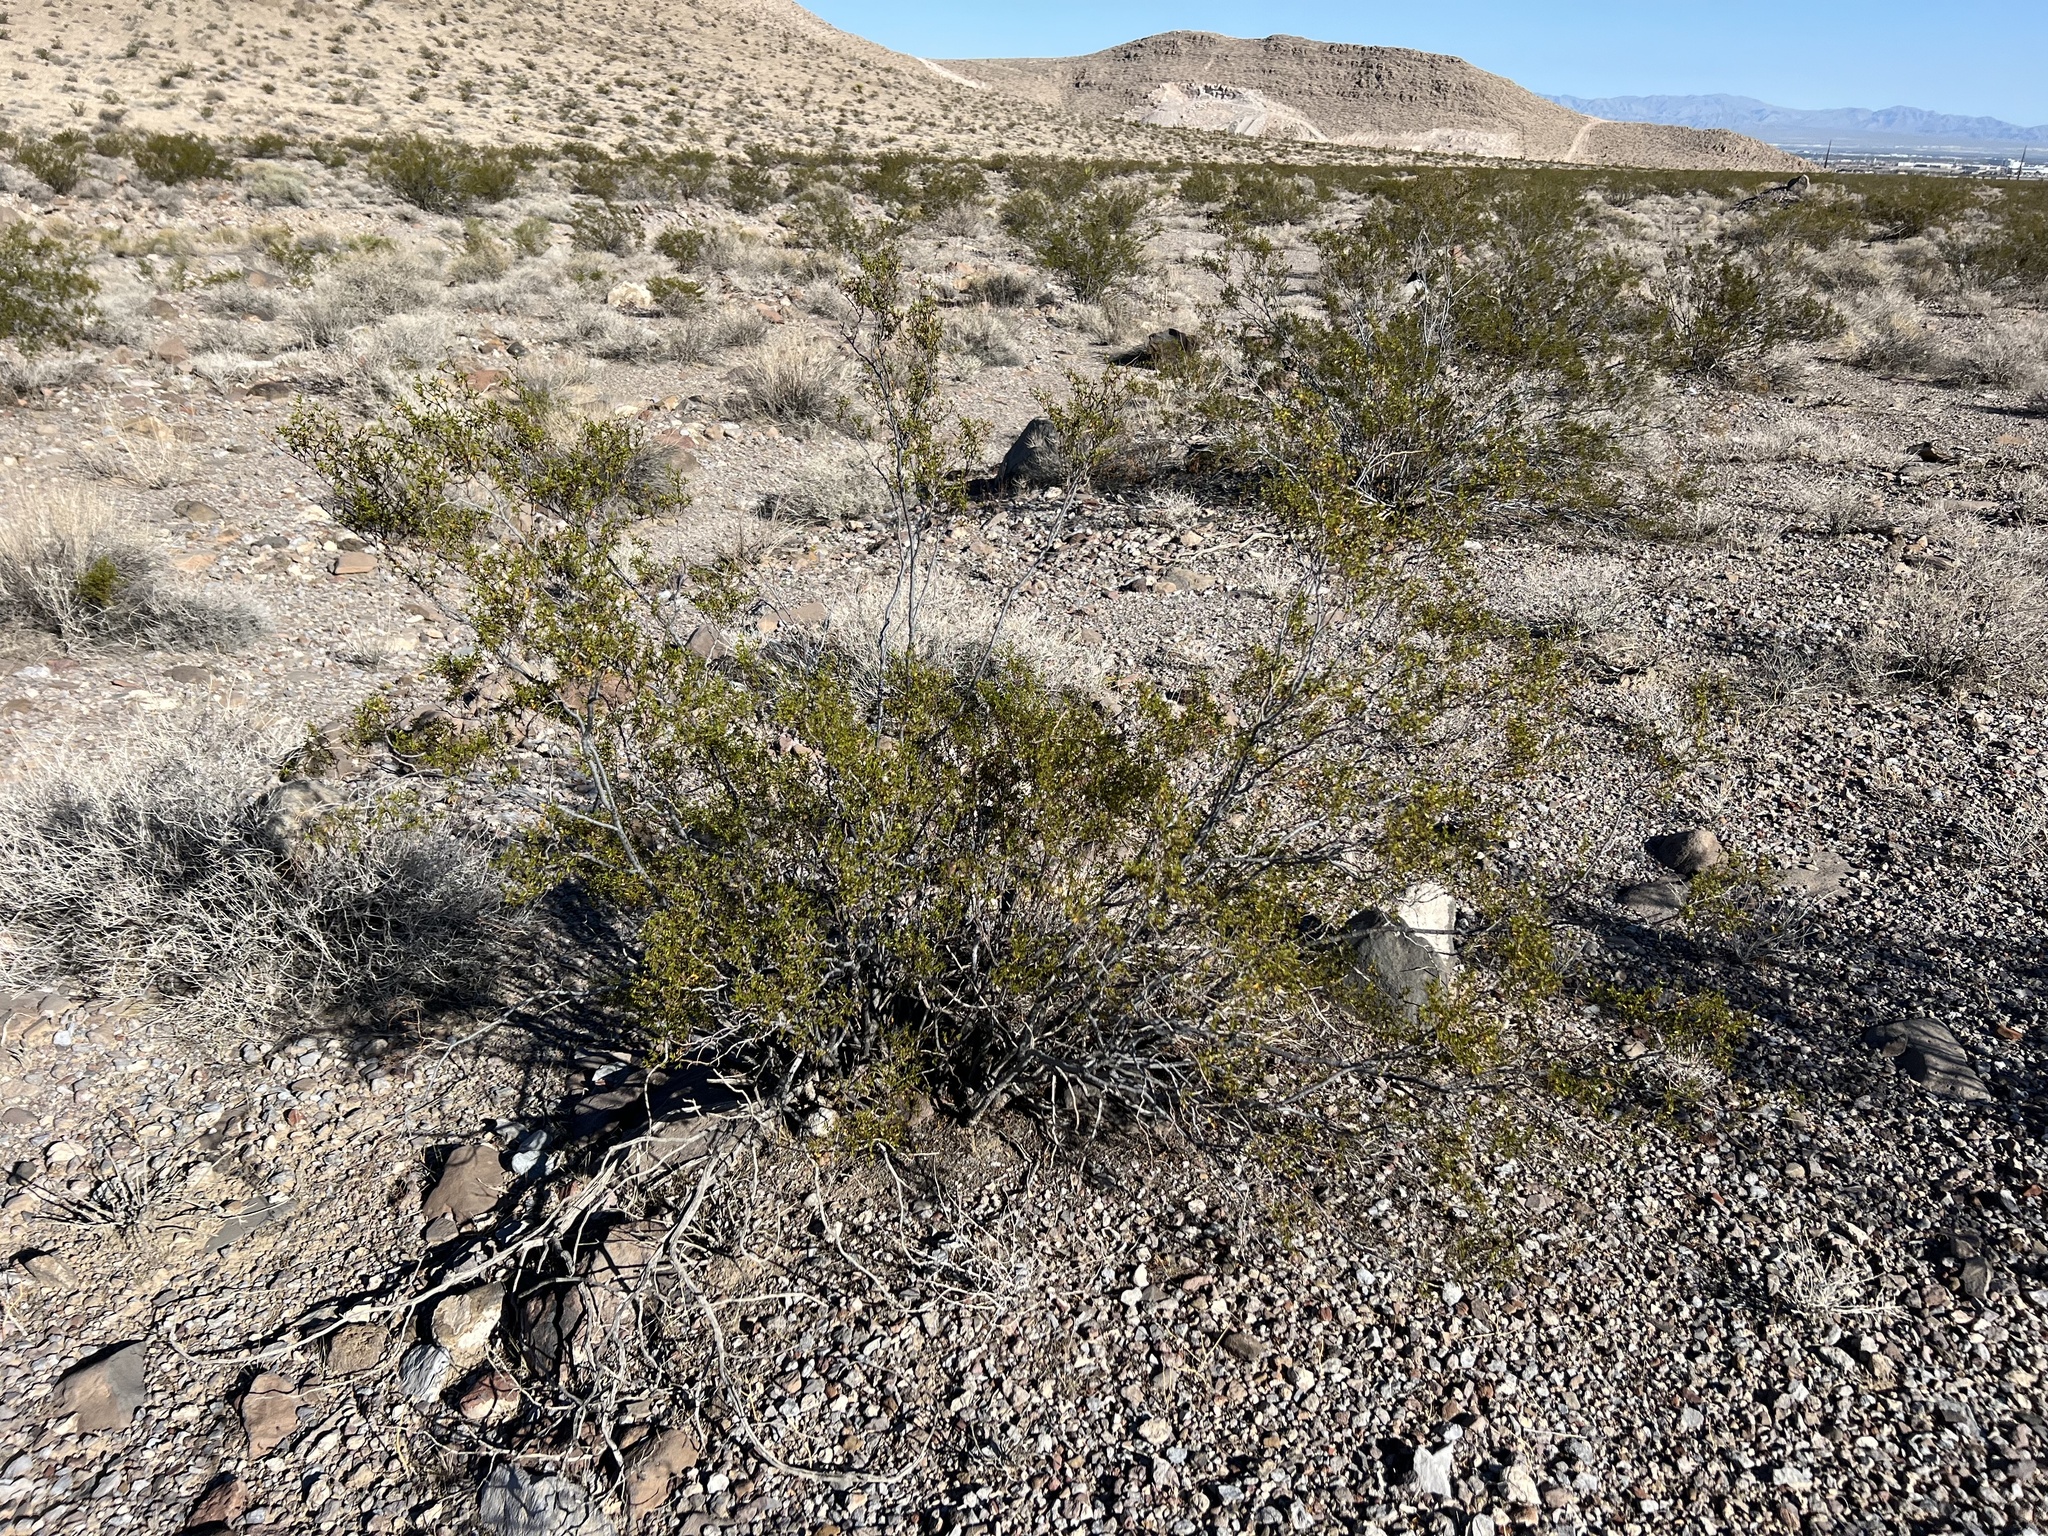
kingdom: Plantae
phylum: Tracheophyta
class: Magnoliopsida
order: Zygophyllales
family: Zygophyllaceae
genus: Larrea
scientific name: Larrea tridentata
